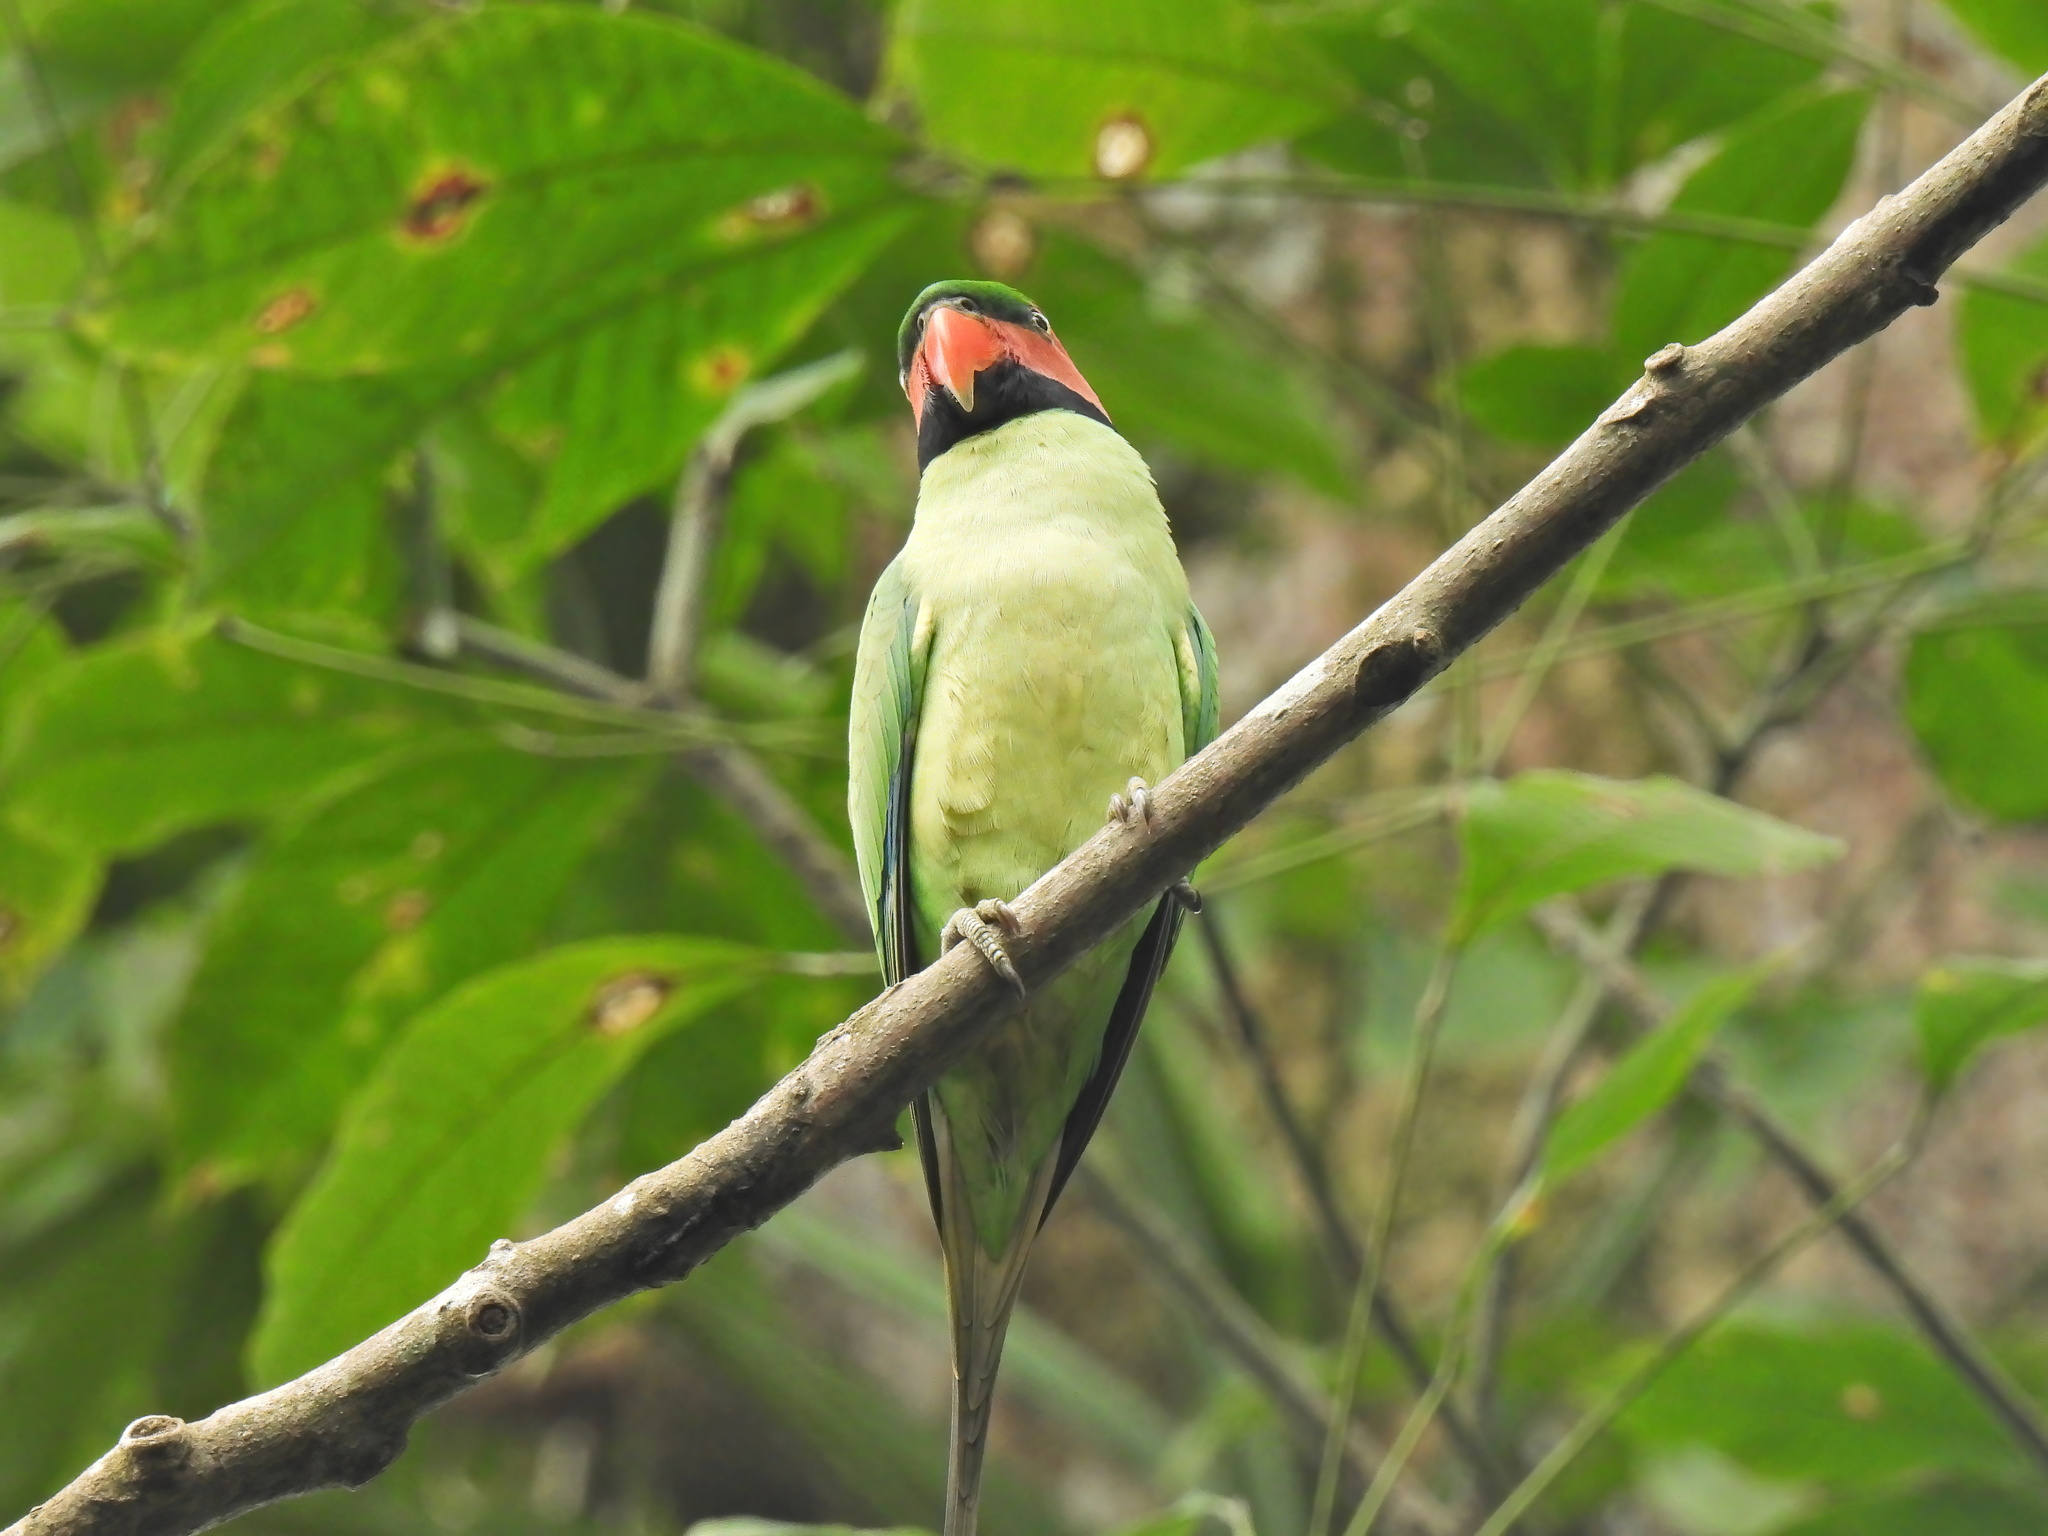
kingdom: Animalia
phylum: Chordata
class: Aves
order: Psittaciformes
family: Psittacidae
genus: Psittacula
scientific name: Psittacula longicauda
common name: Long-tailed parakeet
